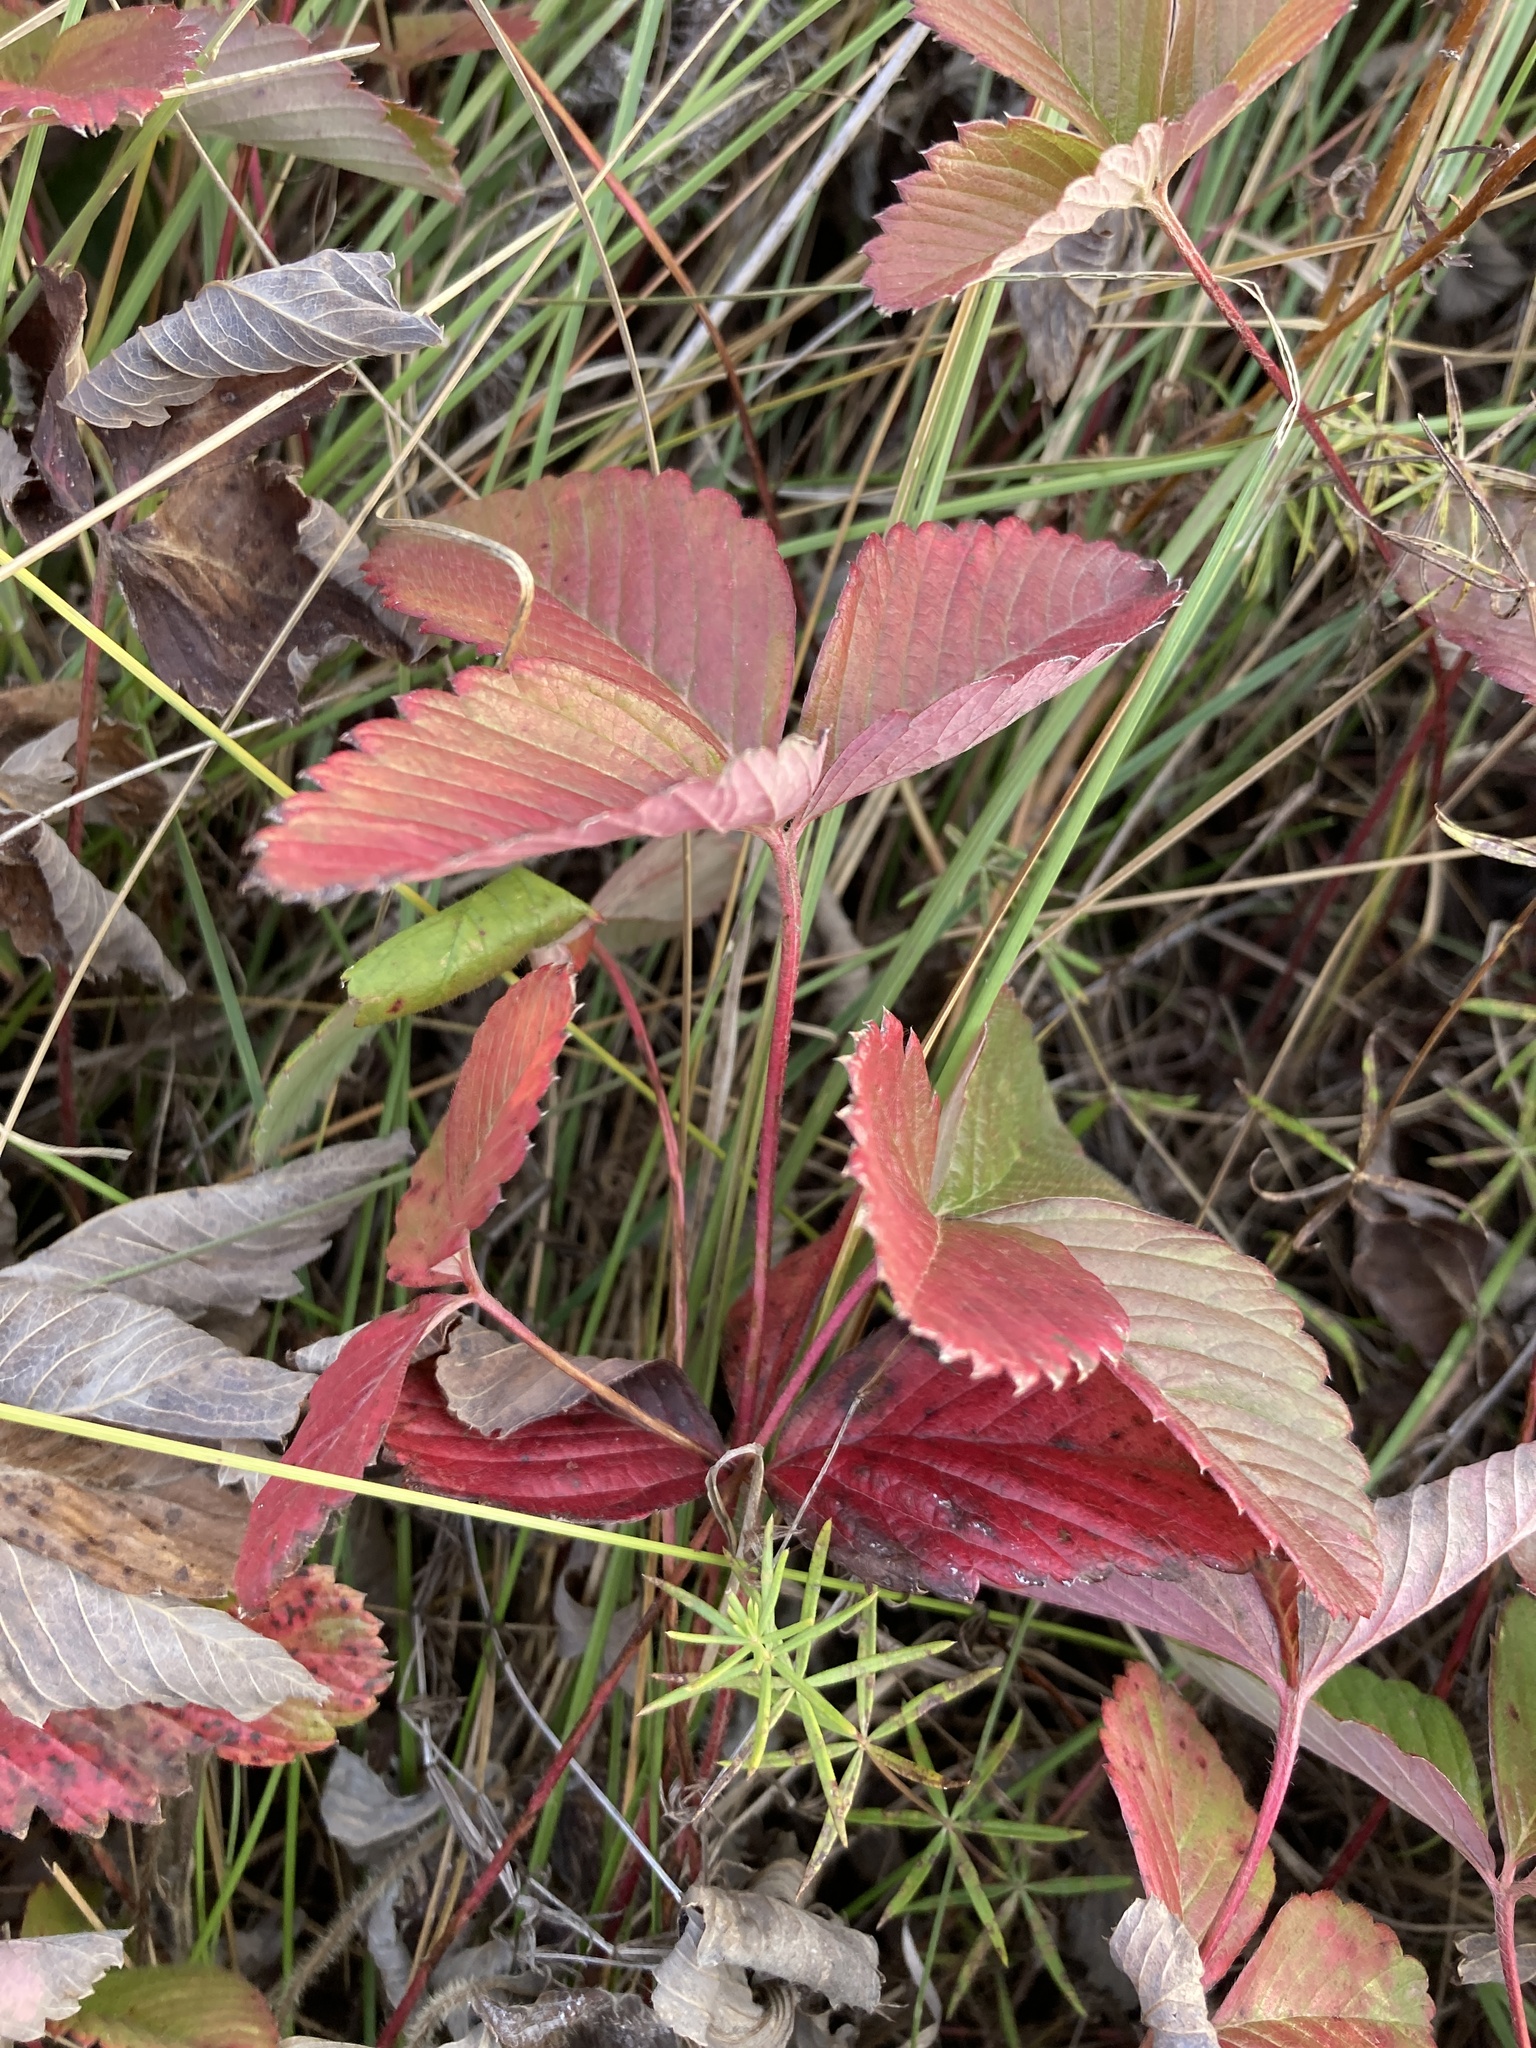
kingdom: Plantae
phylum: Tracheophyta
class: Magnoliopsida
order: Rosales
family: Rosaceae
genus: Fragaria
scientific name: Fragaria viridis
